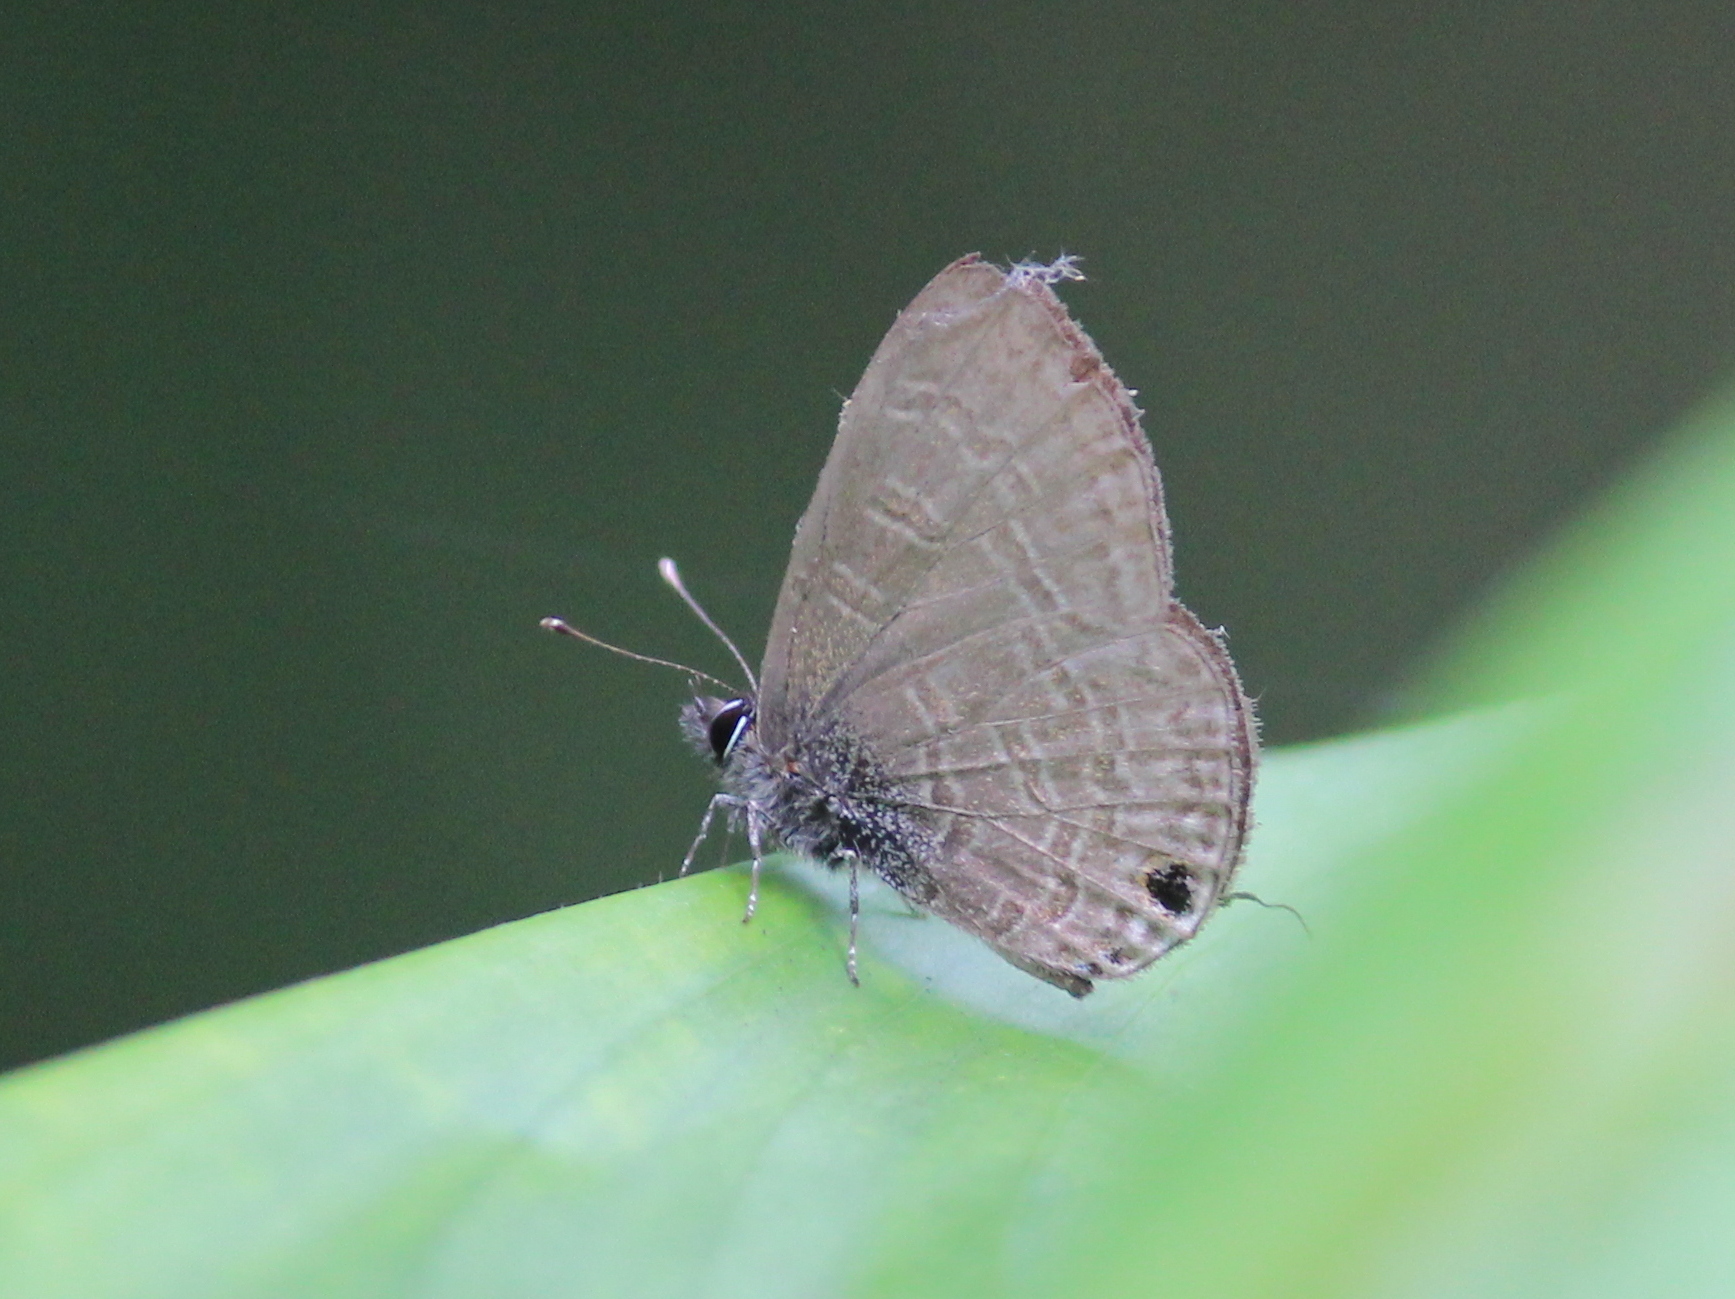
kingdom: Animalia
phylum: Arthropoda
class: Insecta
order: Lepidoptera
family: Lycaenidae
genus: Prosotas
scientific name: Prosotas nora
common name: Common line blue
